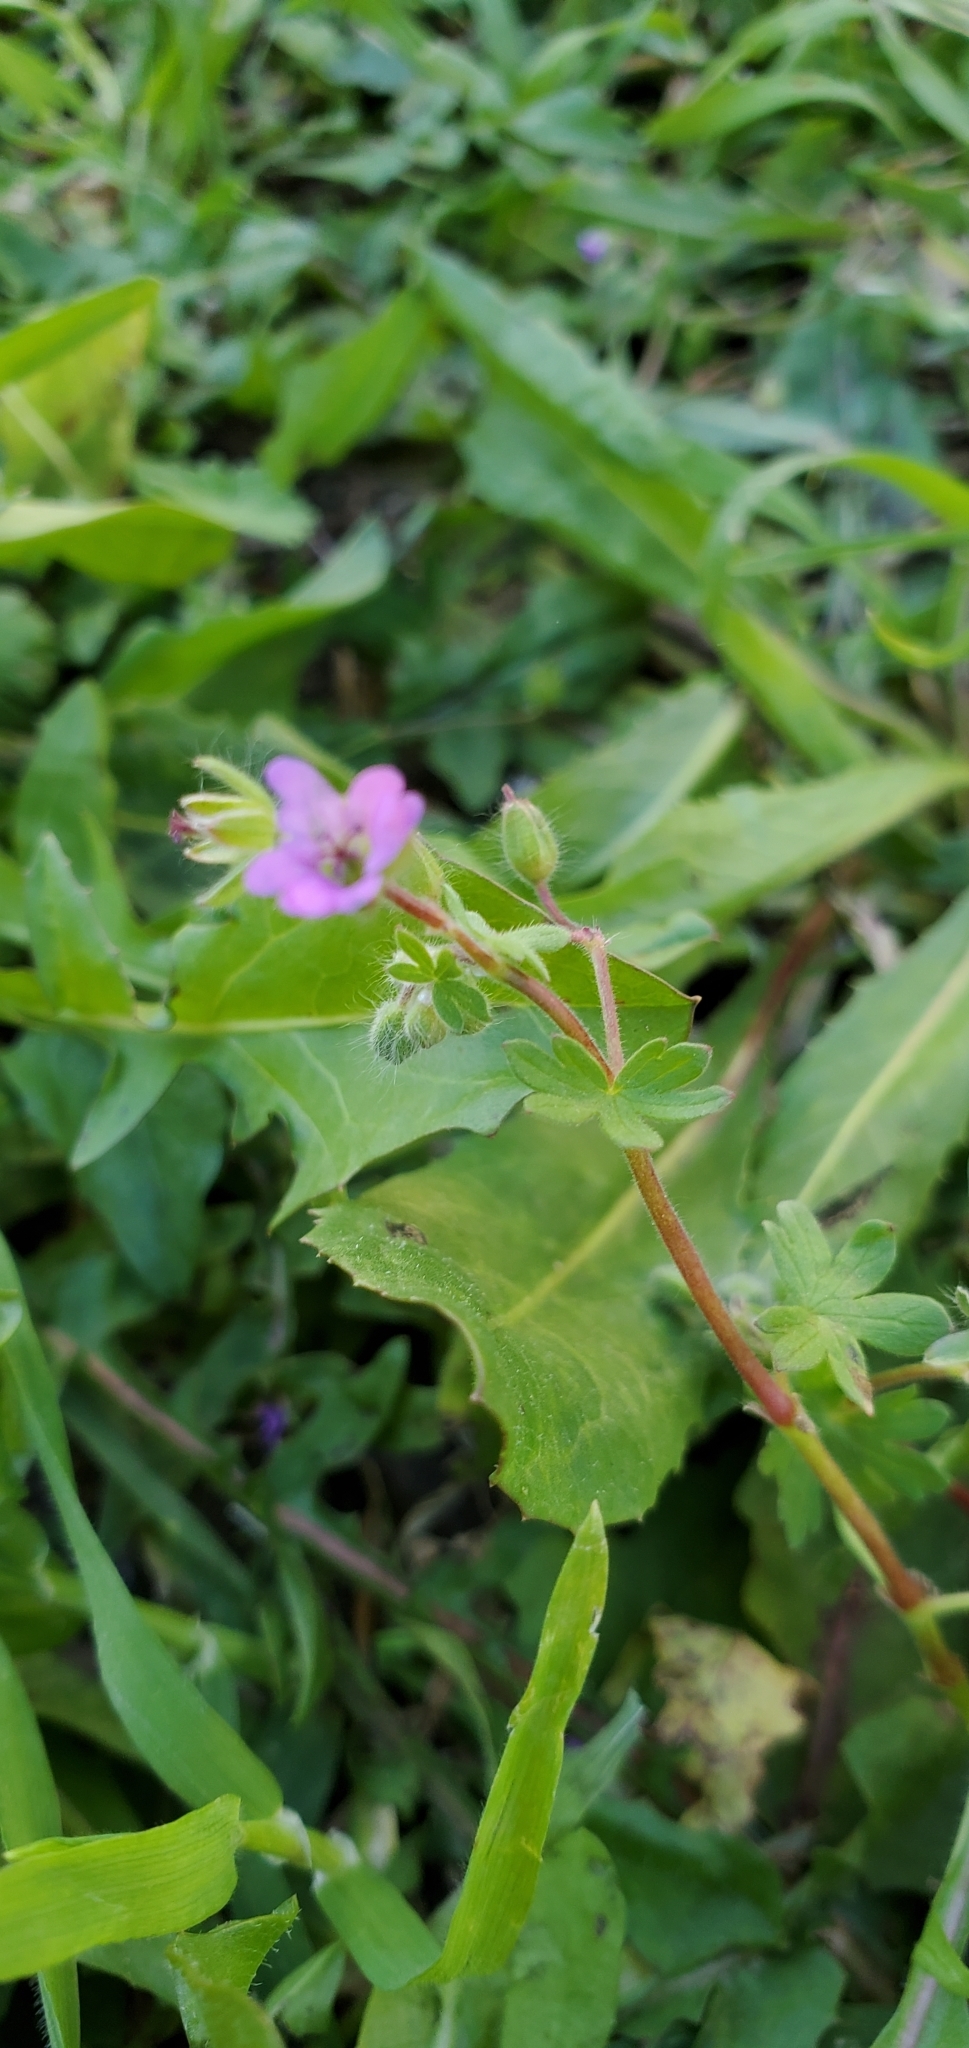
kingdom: Plantae
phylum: Tracheophyta
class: Magnoliopsida
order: Geraniales
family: Geraniaceae
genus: Geranium
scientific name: Geranium molle
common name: Dove's-foot crane's-bill
